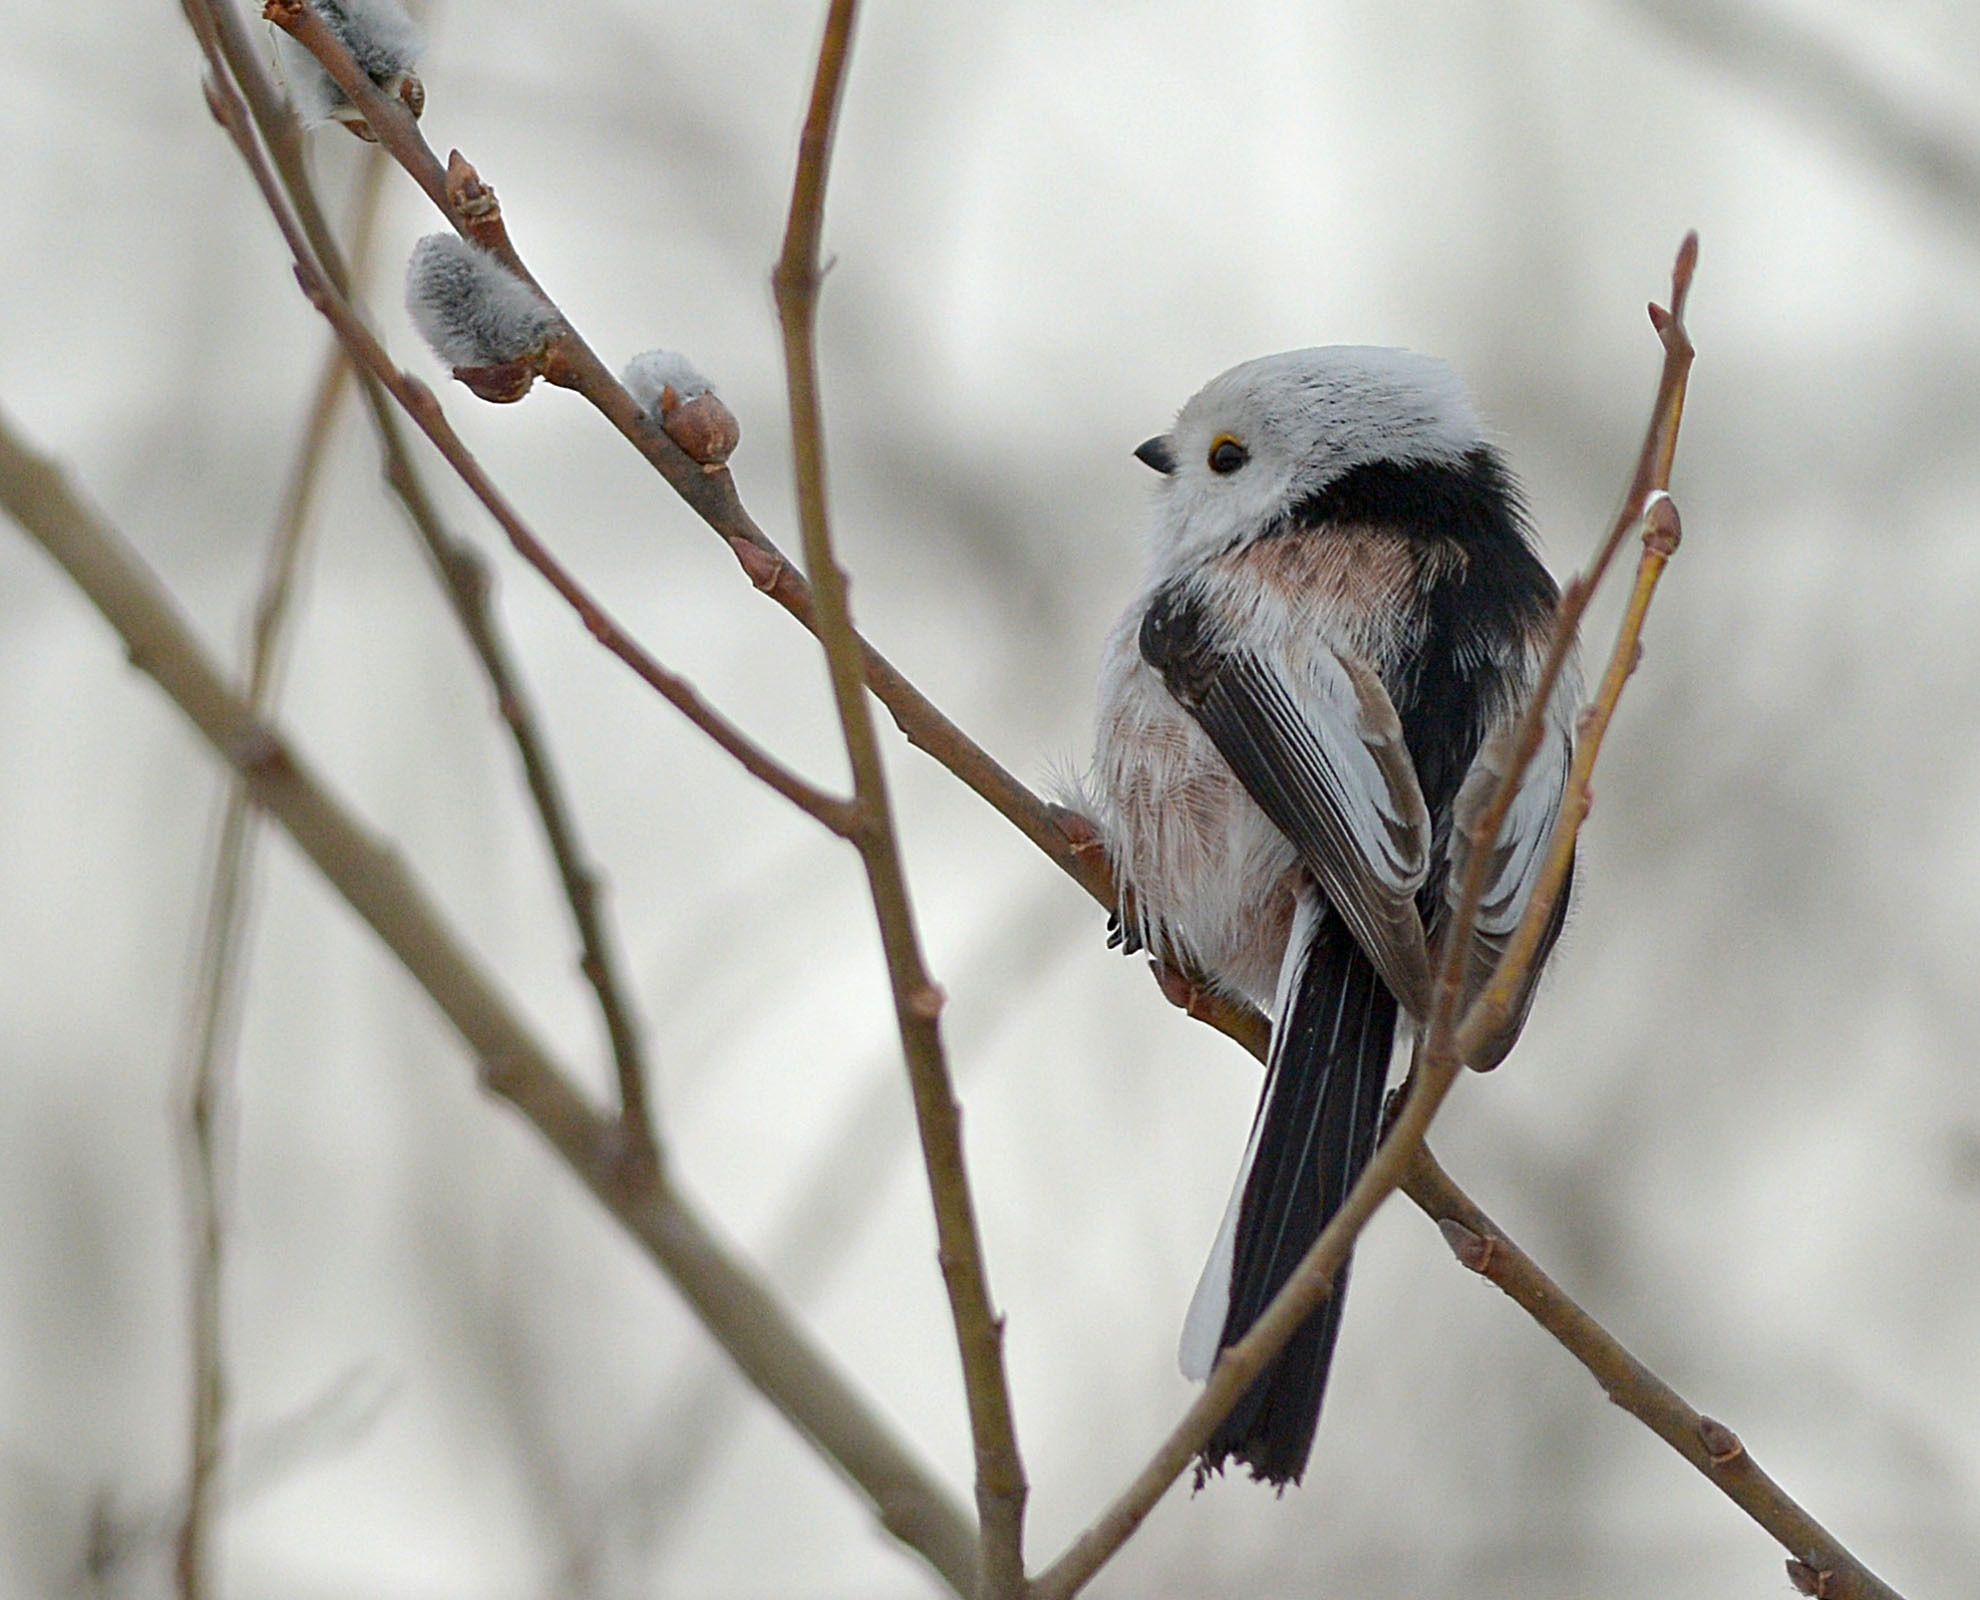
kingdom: Animalia
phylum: Chordata
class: Aves
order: Passeriformes
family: Aegithalidae
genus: Aegithalos
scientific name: Aegithalos caudatus
